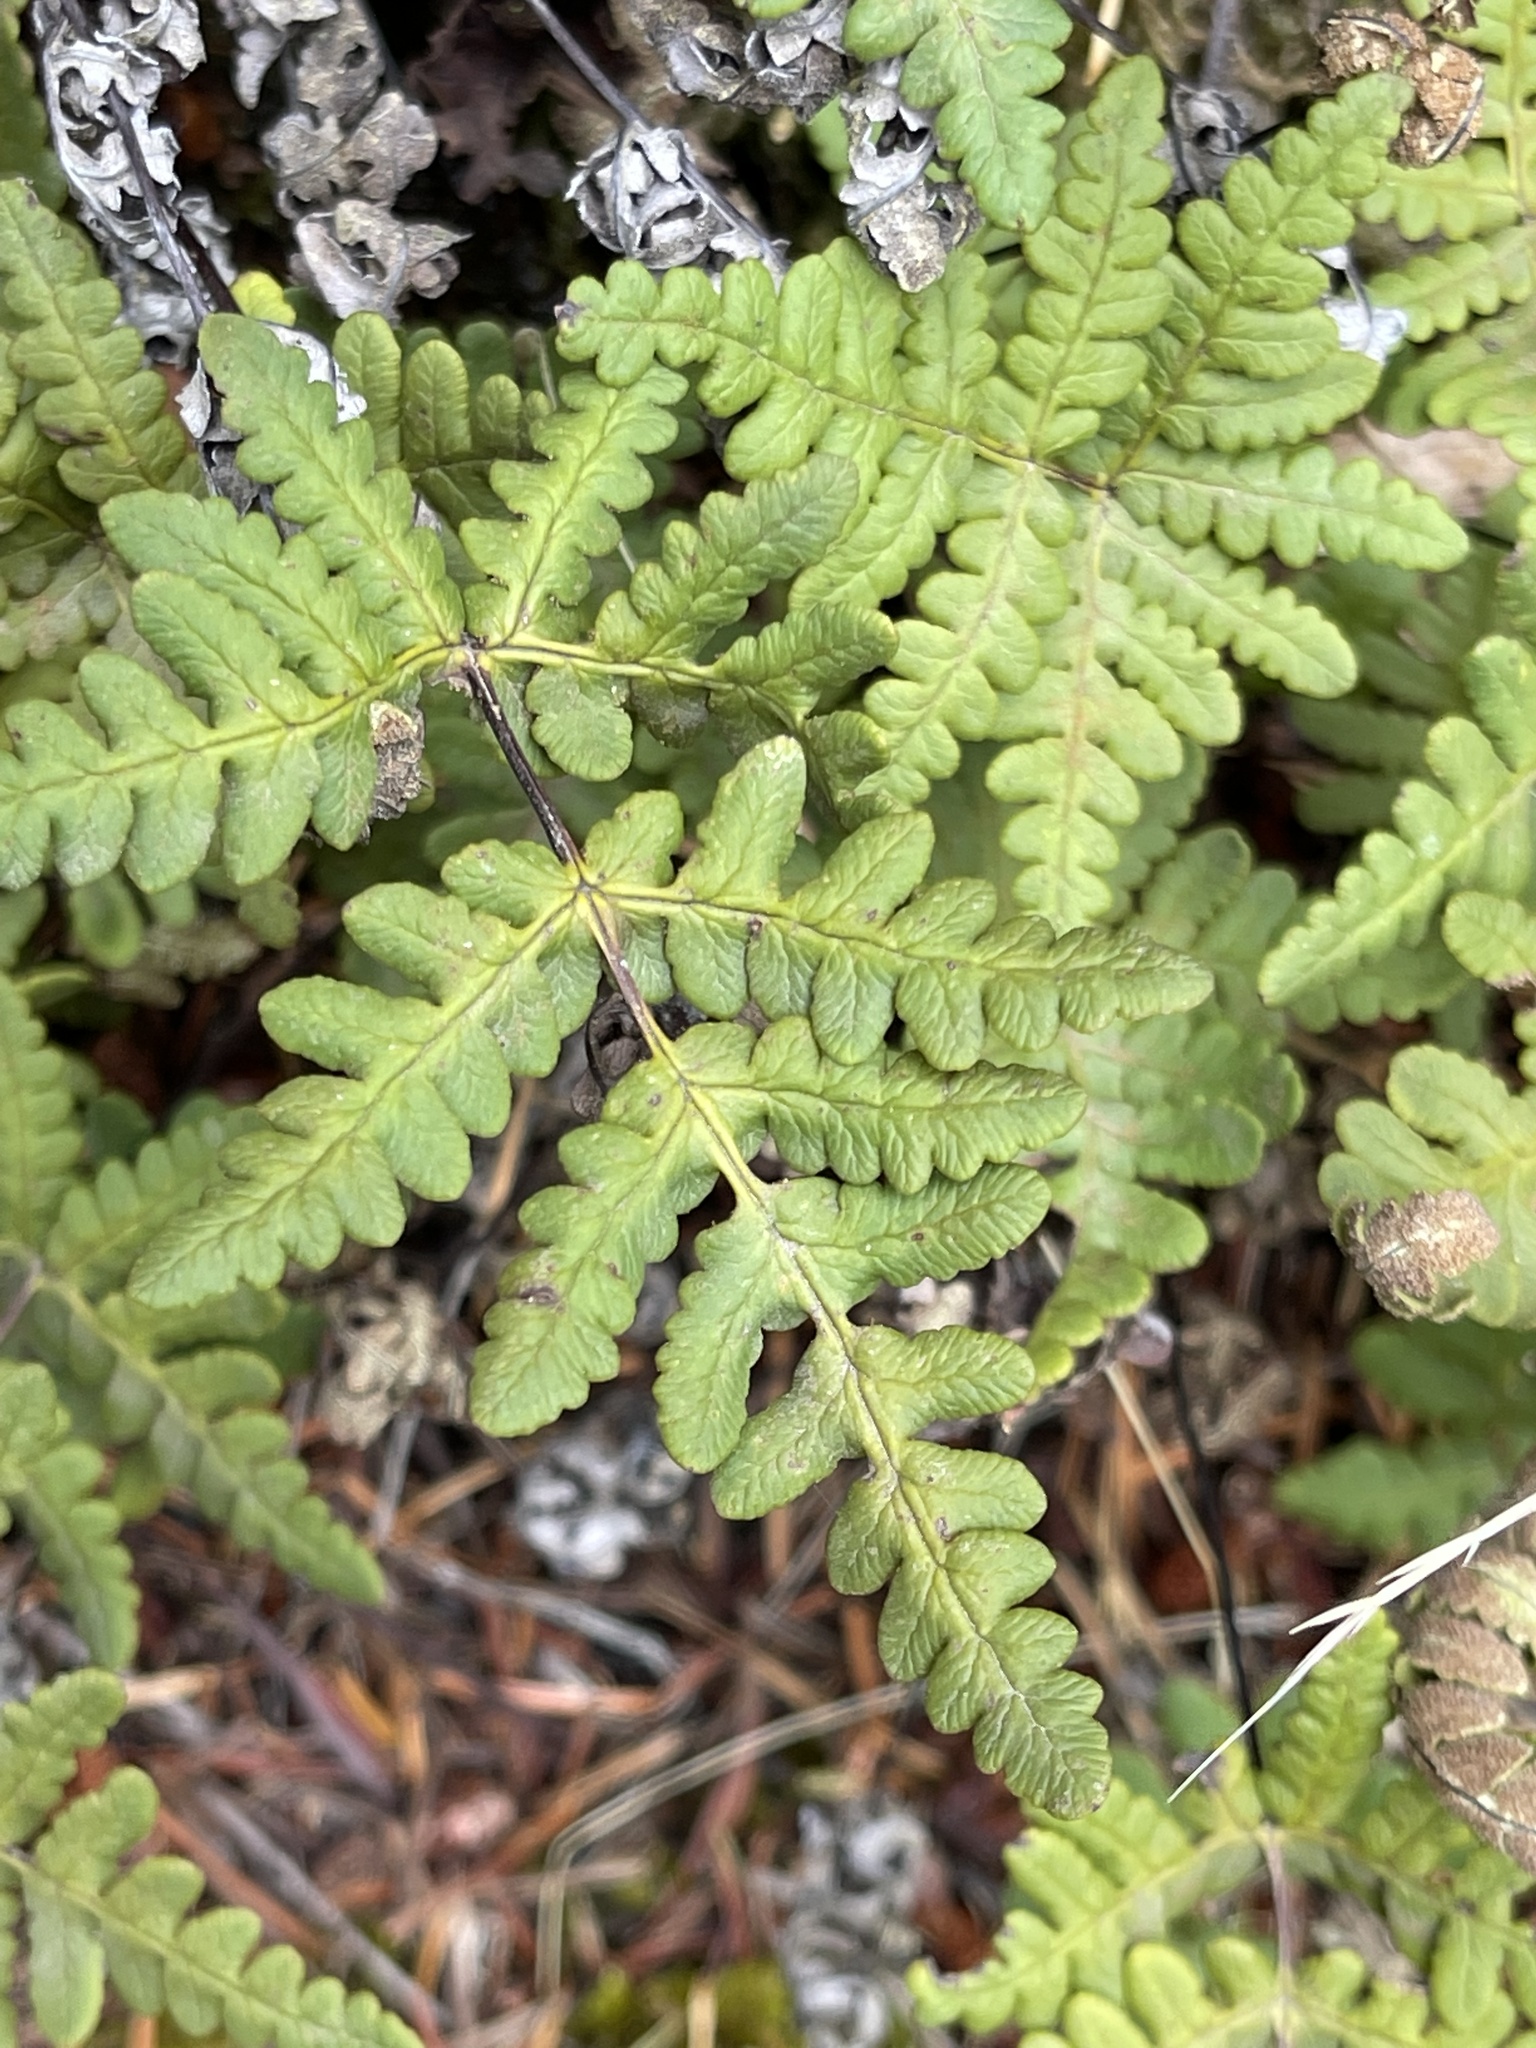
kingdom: Plantae
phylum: Tracheophyta
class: Polypodiopsida
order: Polypodiales
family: Pteridaceae
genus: Pentagramma
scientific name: Pentagramma triangularis
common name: Gold fern
